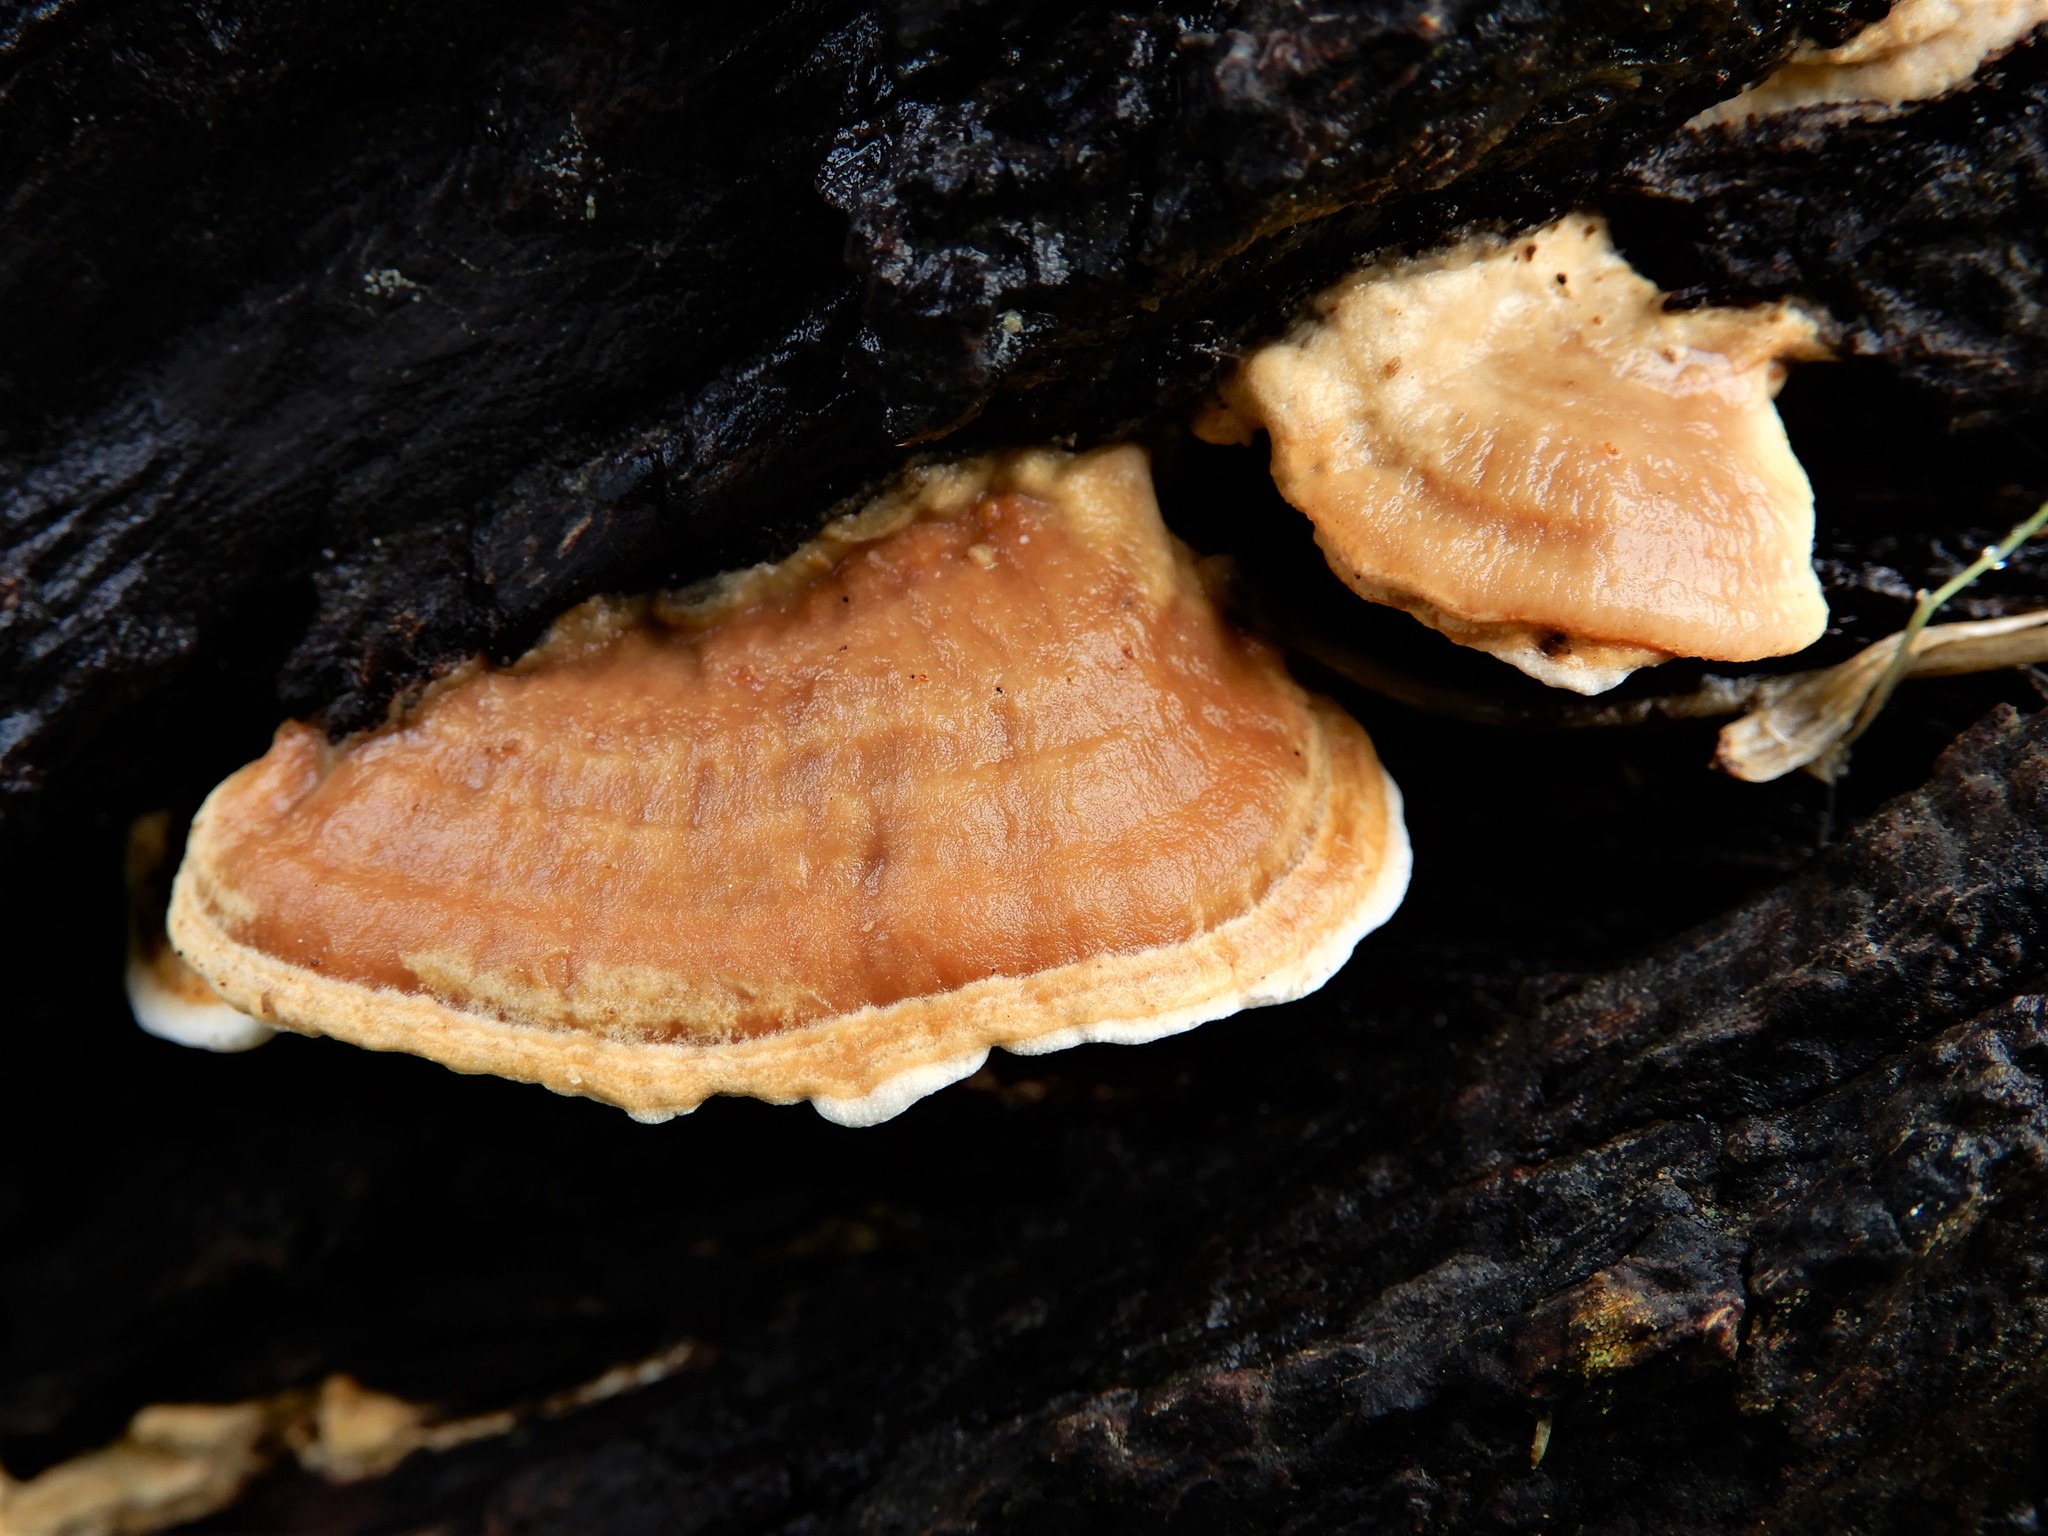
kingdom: Fungi
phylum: Basidiomycota
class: Agaricomycetes
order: Gloeophyllales
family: Gloeophyllaceae
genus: Gloeophyllum
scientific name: Gloeophyllum trabeum
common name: Timber mazegill
